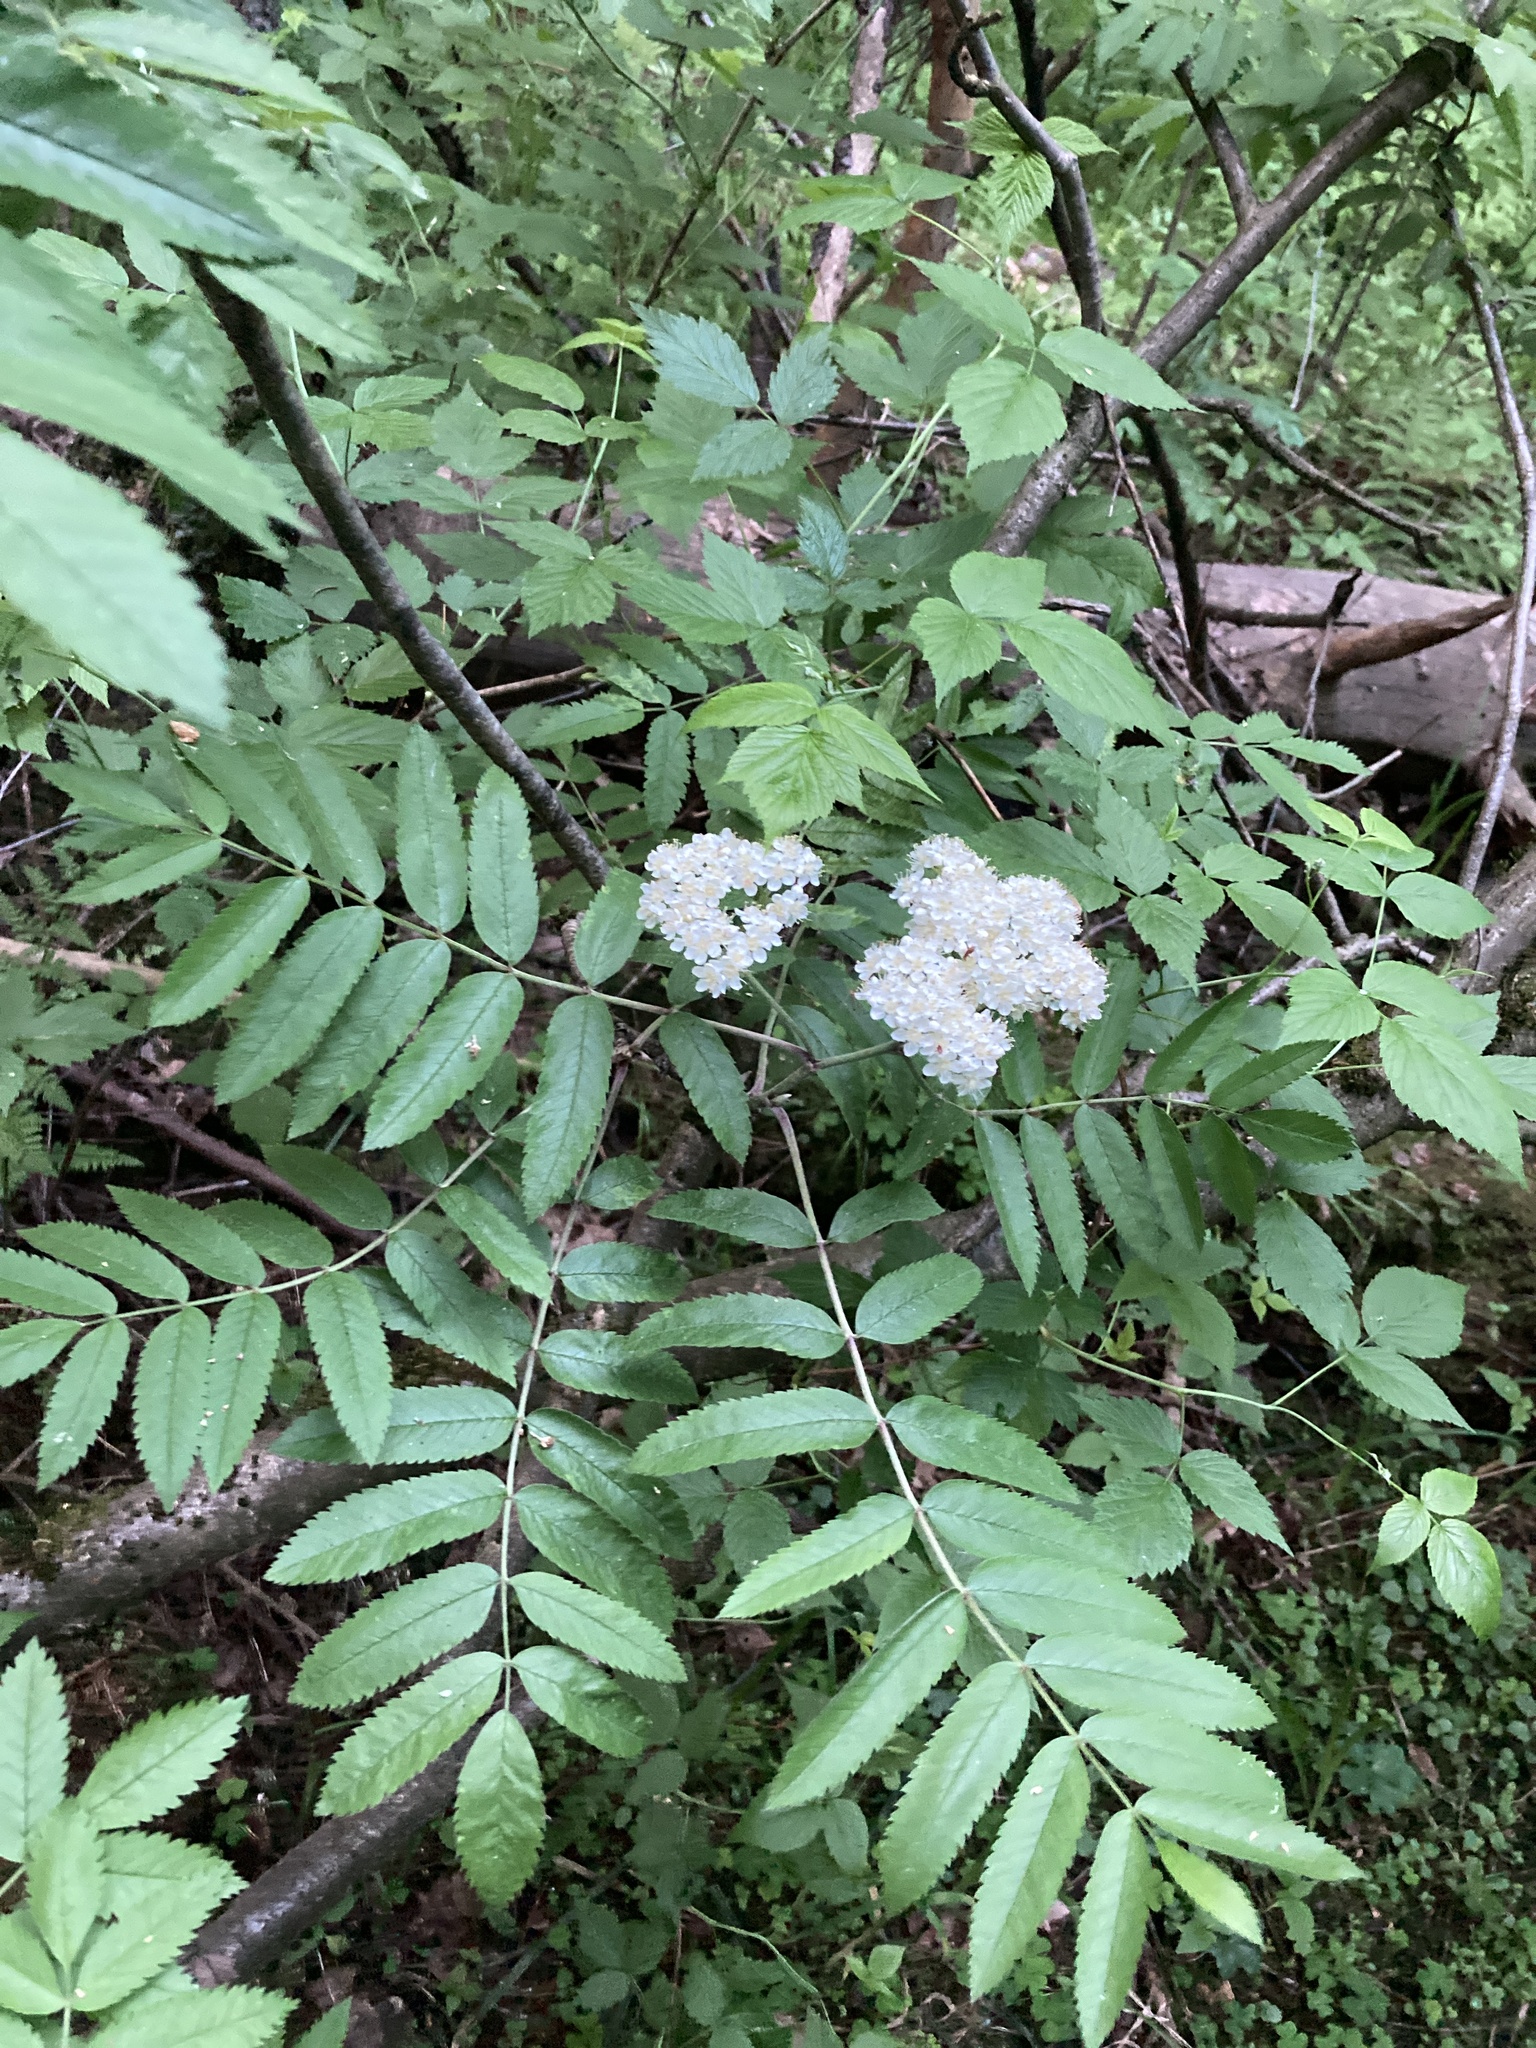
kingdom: Plantae
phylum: Tracheophyta
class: Magnoliopsida
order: Rosales
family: Rosaceae
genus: Sorbus
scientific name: Sorbus aucuparia
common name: Rowan
